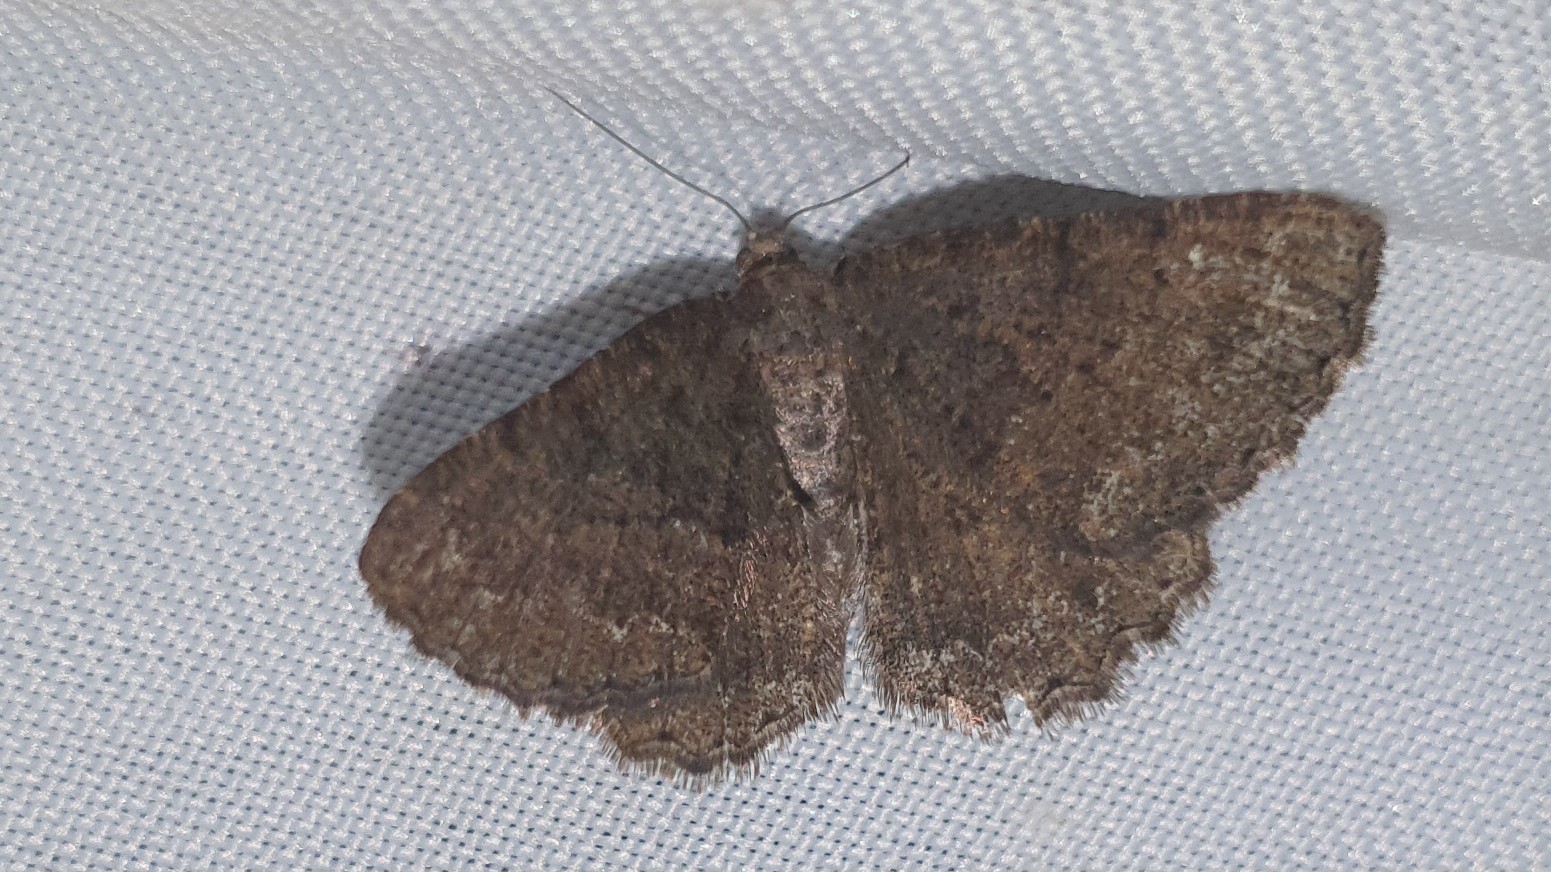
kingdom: Animalia
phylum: Arthropoda
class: Insecta
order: Lepidoptera
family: Geometridae
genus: Selidosema
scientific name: Selidosema taeniolaria
